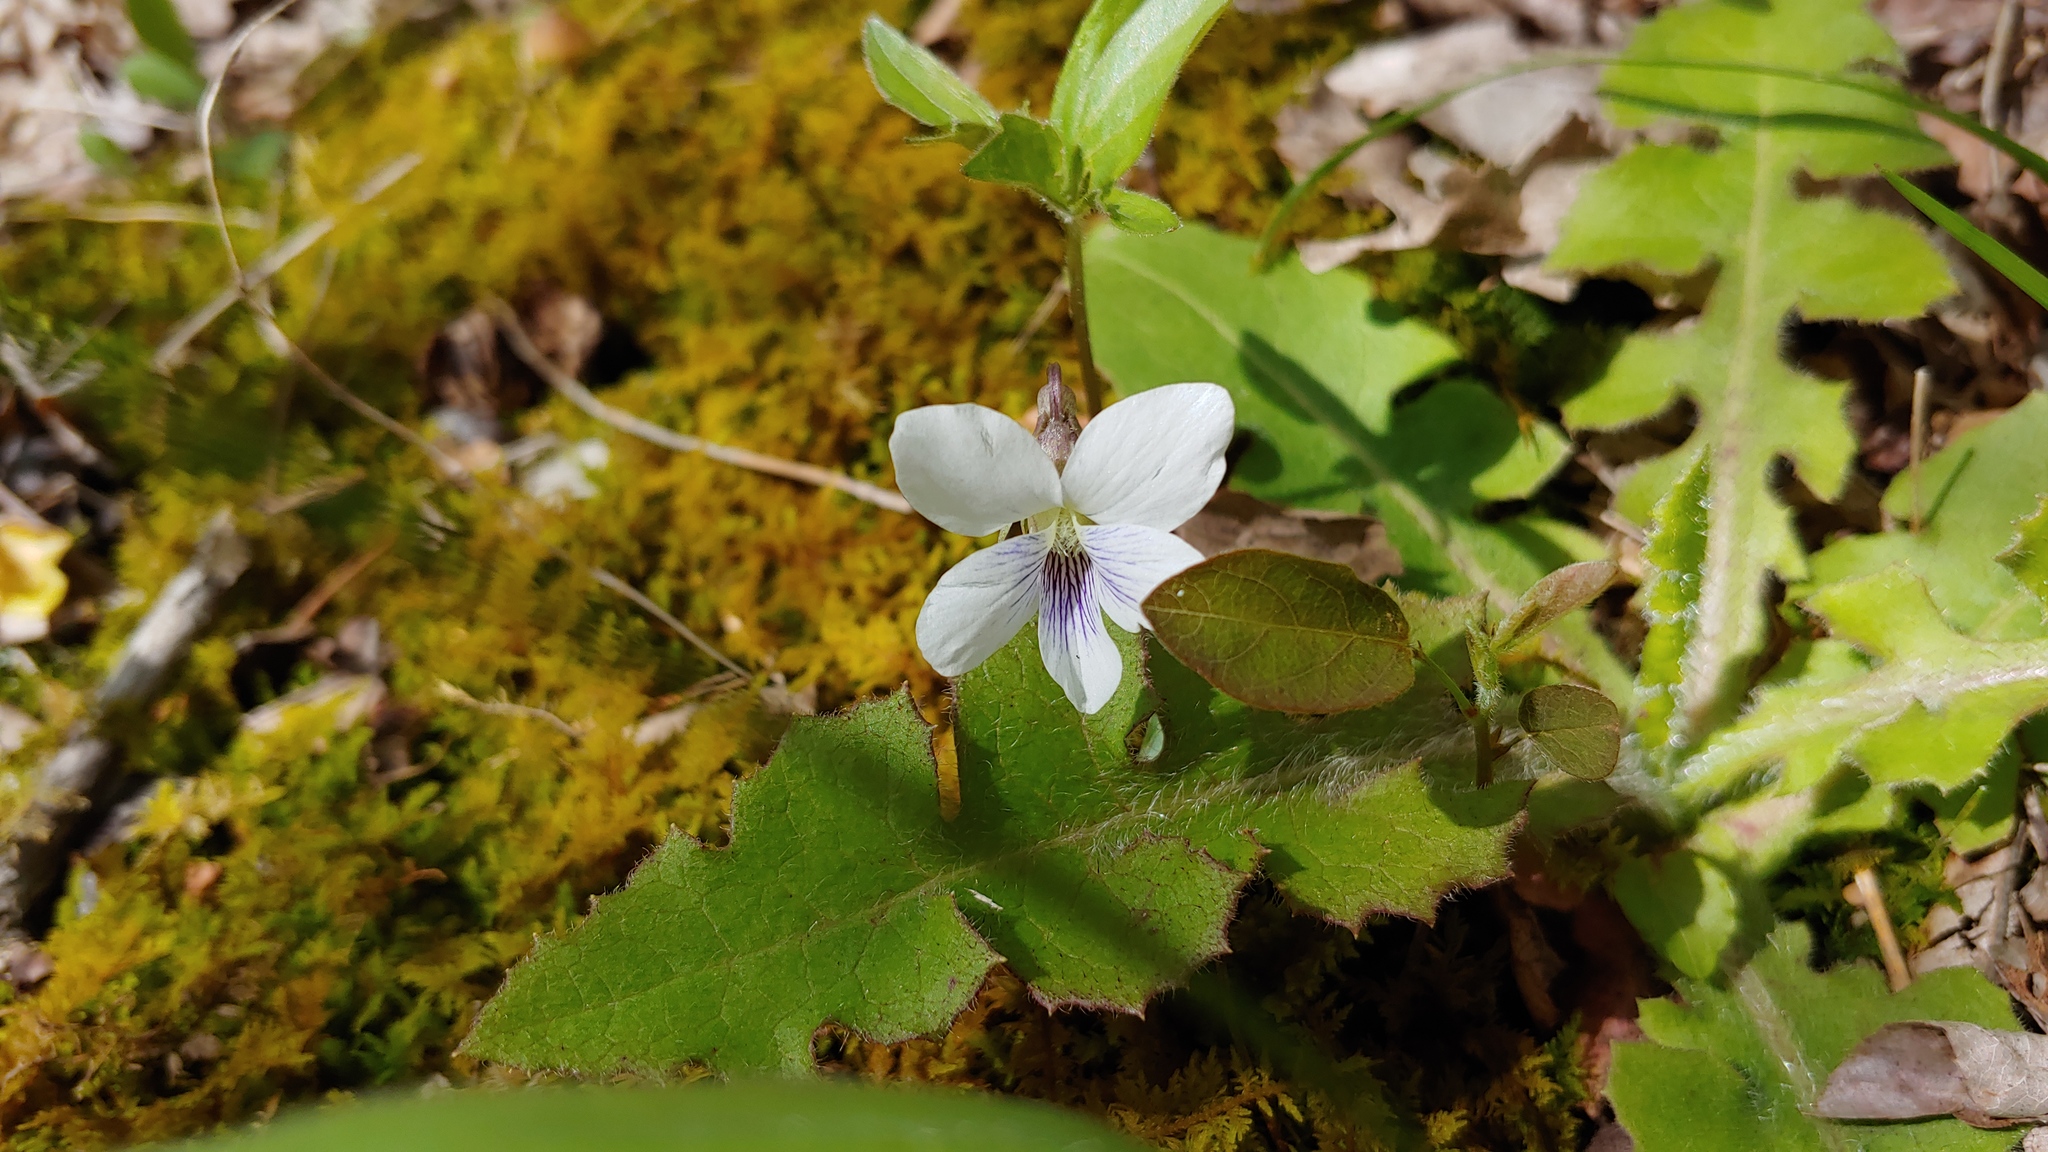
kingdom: Plantae
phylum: Tracheophyta
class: Magnoliopsida
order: Malpighiales
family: Violaceae
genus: Viola
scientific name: Viola palmata
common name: Early blue violet
